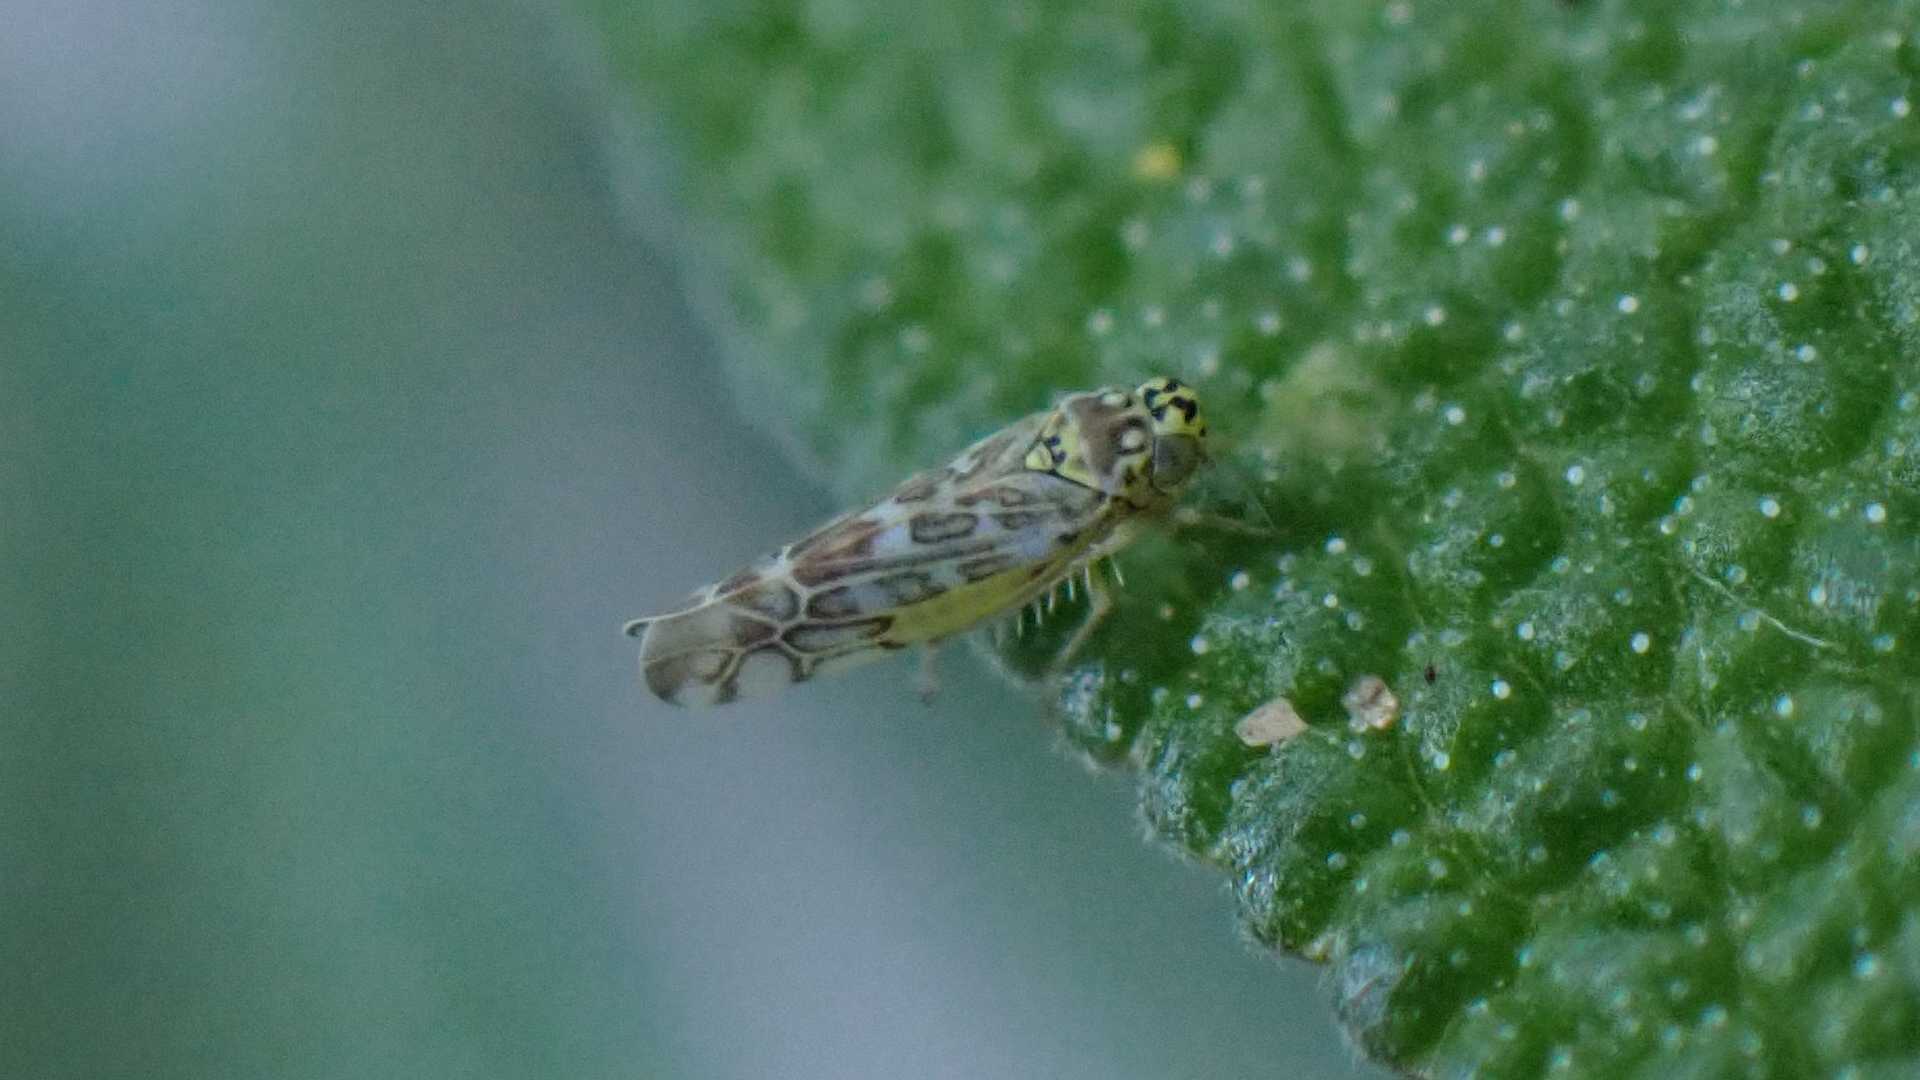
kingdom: Animalia
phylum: Arthropoda
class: Insecta
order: Hemiptera
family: Cicadellidae
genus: Eupteryx
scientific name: Eupteryx decemnotata
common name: Ligurian leafhopper
